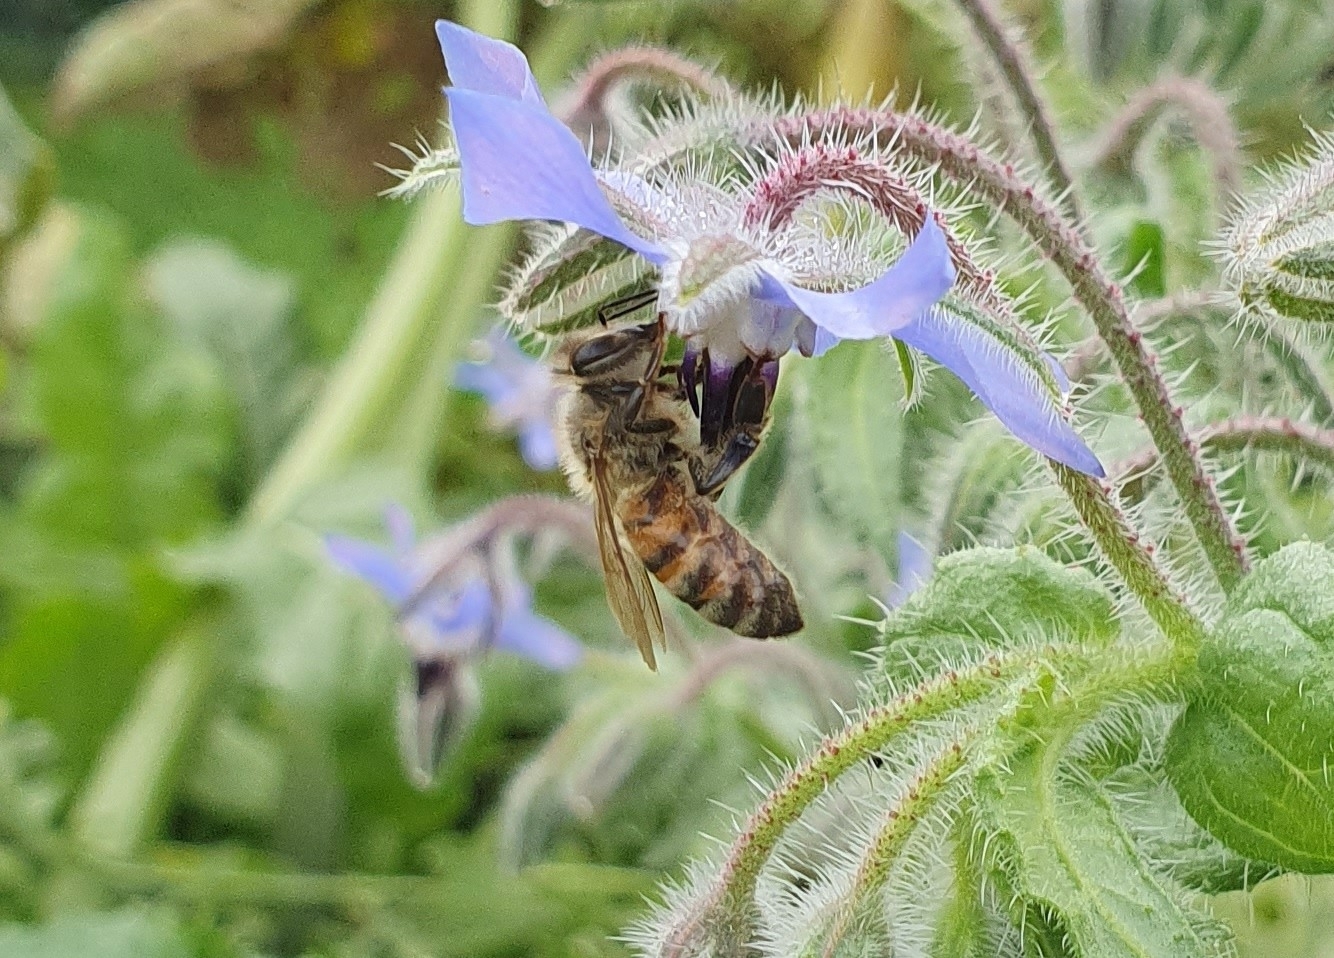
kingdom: Animalia
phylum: Arthropoda
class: Insecta
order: Hymenoptera
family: Apidae
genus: Apis
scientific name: Apis mellifera
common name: Honey bee
